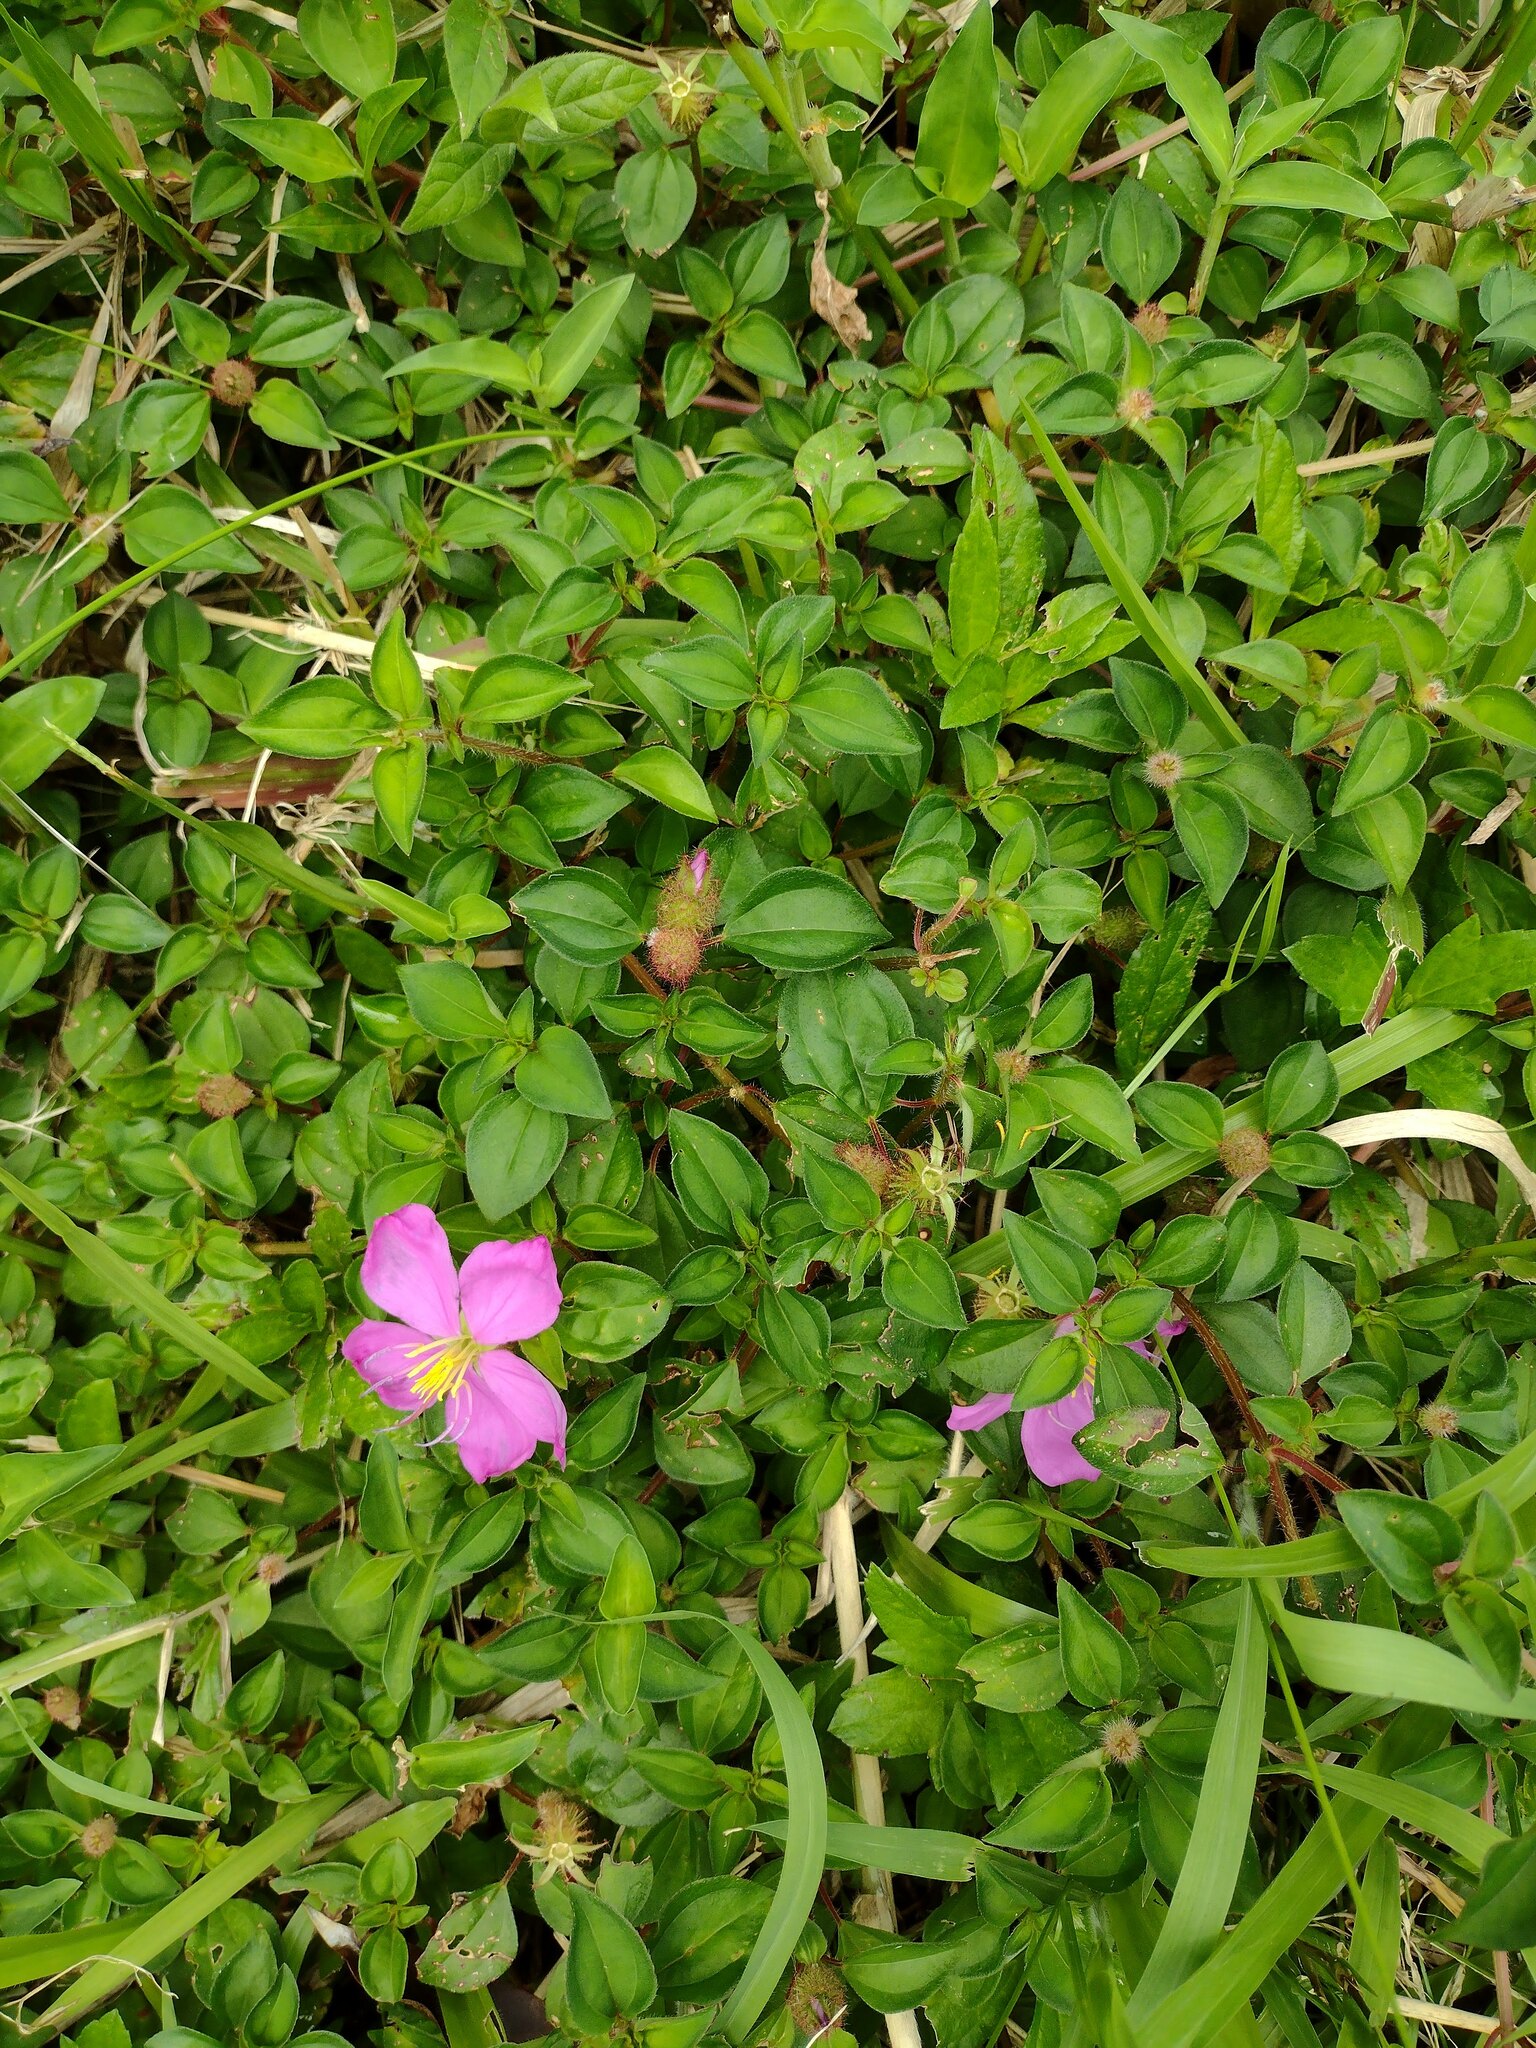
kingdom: Plantae
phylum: Tracheophyta
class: Magnoliopsida
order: Myrtales
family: Melastomataceae
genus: Heterotis
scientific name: Heterotis rotundifolia
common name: Pinklady
